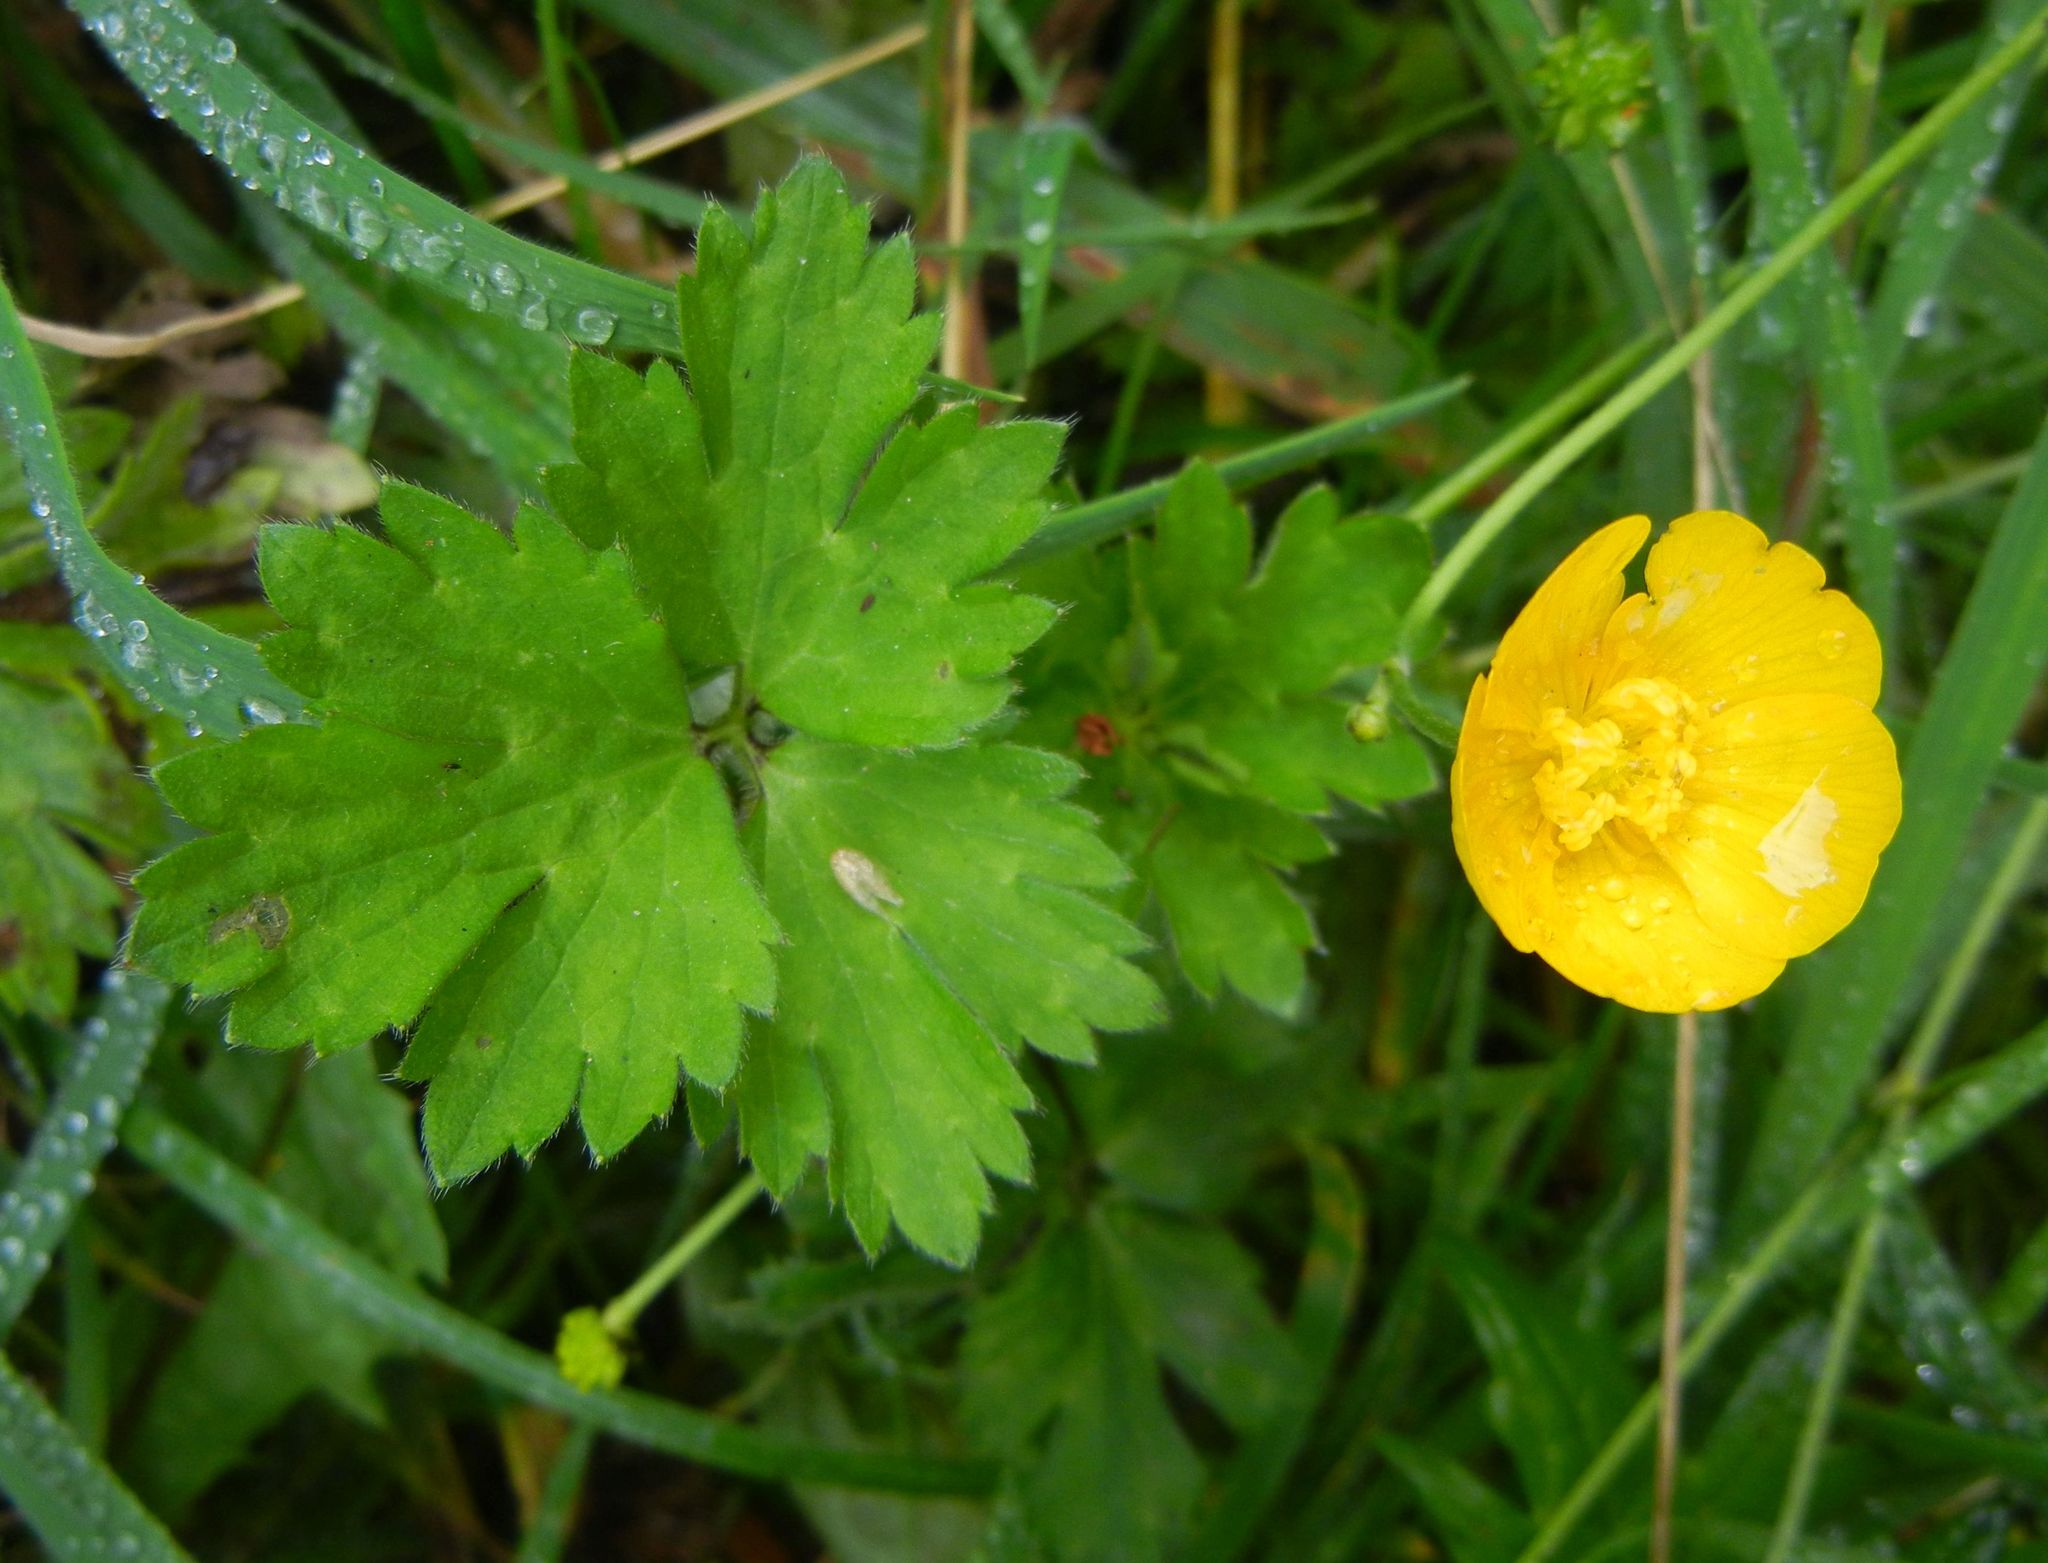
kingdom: Plantae
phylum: Tracheophyta
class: Magnoliopsida
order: Ranunculales
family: Ranunculaceae
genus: Ranunculus
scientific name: Ranunculus repens
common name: Creeping buttercup
